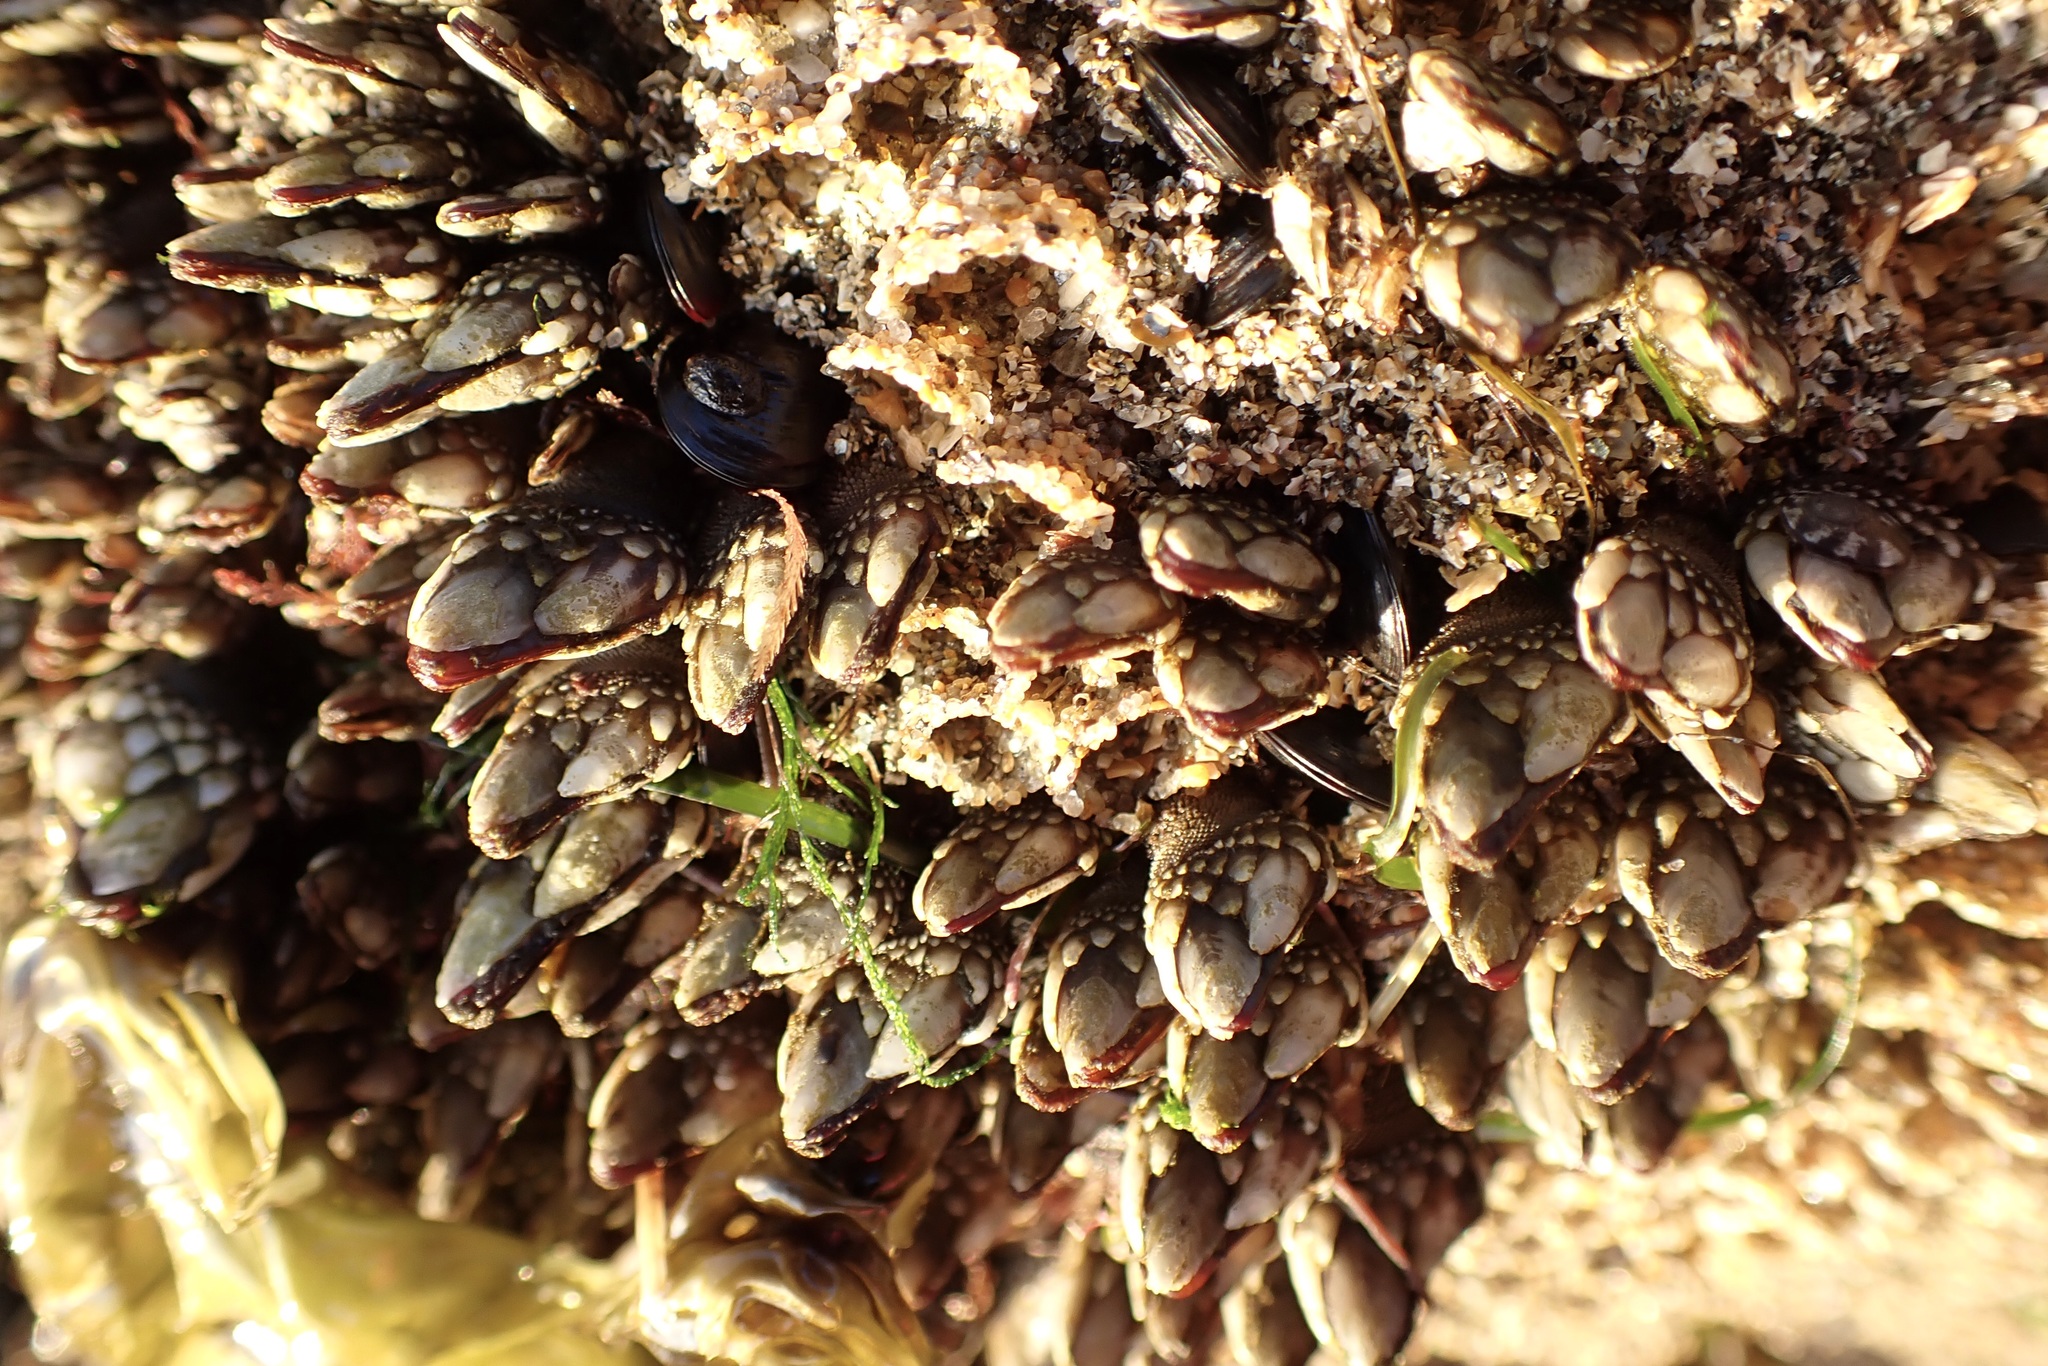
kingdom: Animalia
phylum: Arthropoda
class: Maxillopoda
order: Pedunculata
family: Pollicipedidae
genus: Pollicipes
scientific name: Pollicipes polymerus
